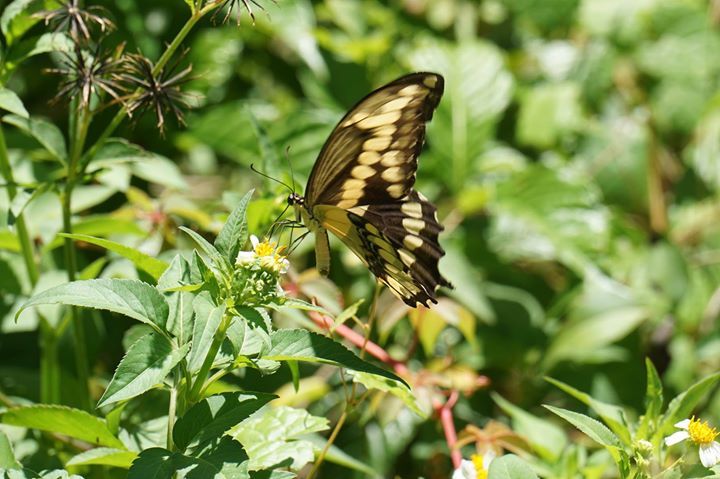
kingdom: Animalia
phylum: Arthropoda
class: Insecta
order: Lepidoptera
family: Papilionidae
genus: Papilio
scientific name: Papilio cresphontes
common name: Giant swallowtail
